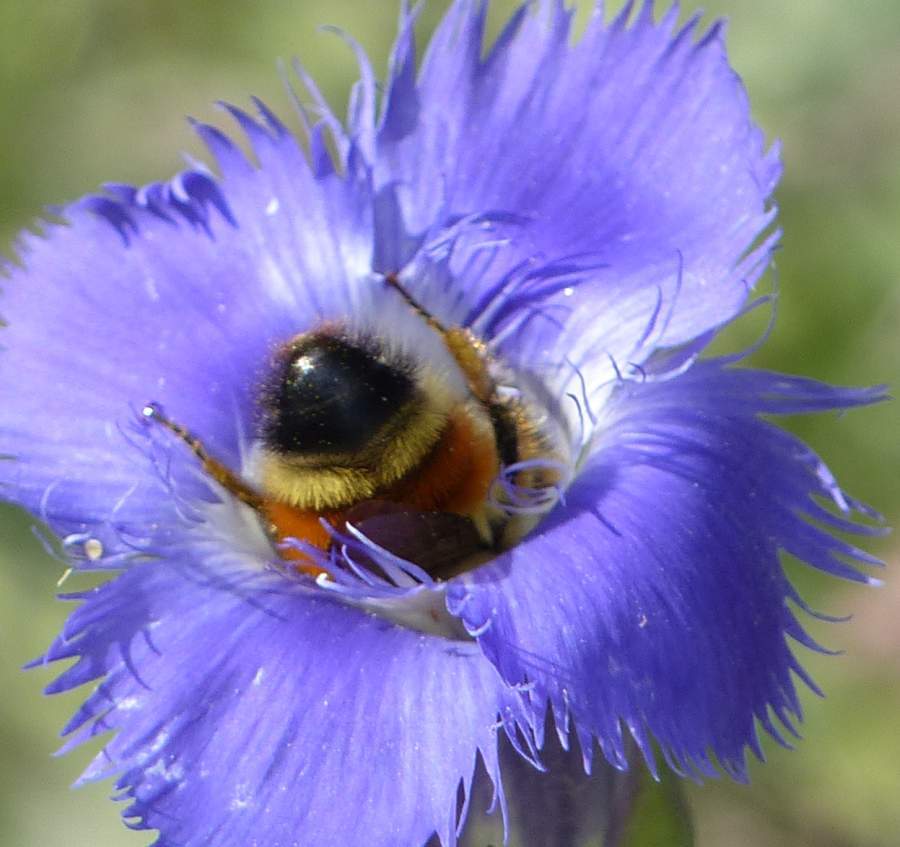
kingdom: Animalia
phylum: Arthropoda
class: Insecta
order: Hymenoptera
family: Apidae
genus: Bombus
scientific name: Bombus ternarius
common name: Tri-colored bumble bee
